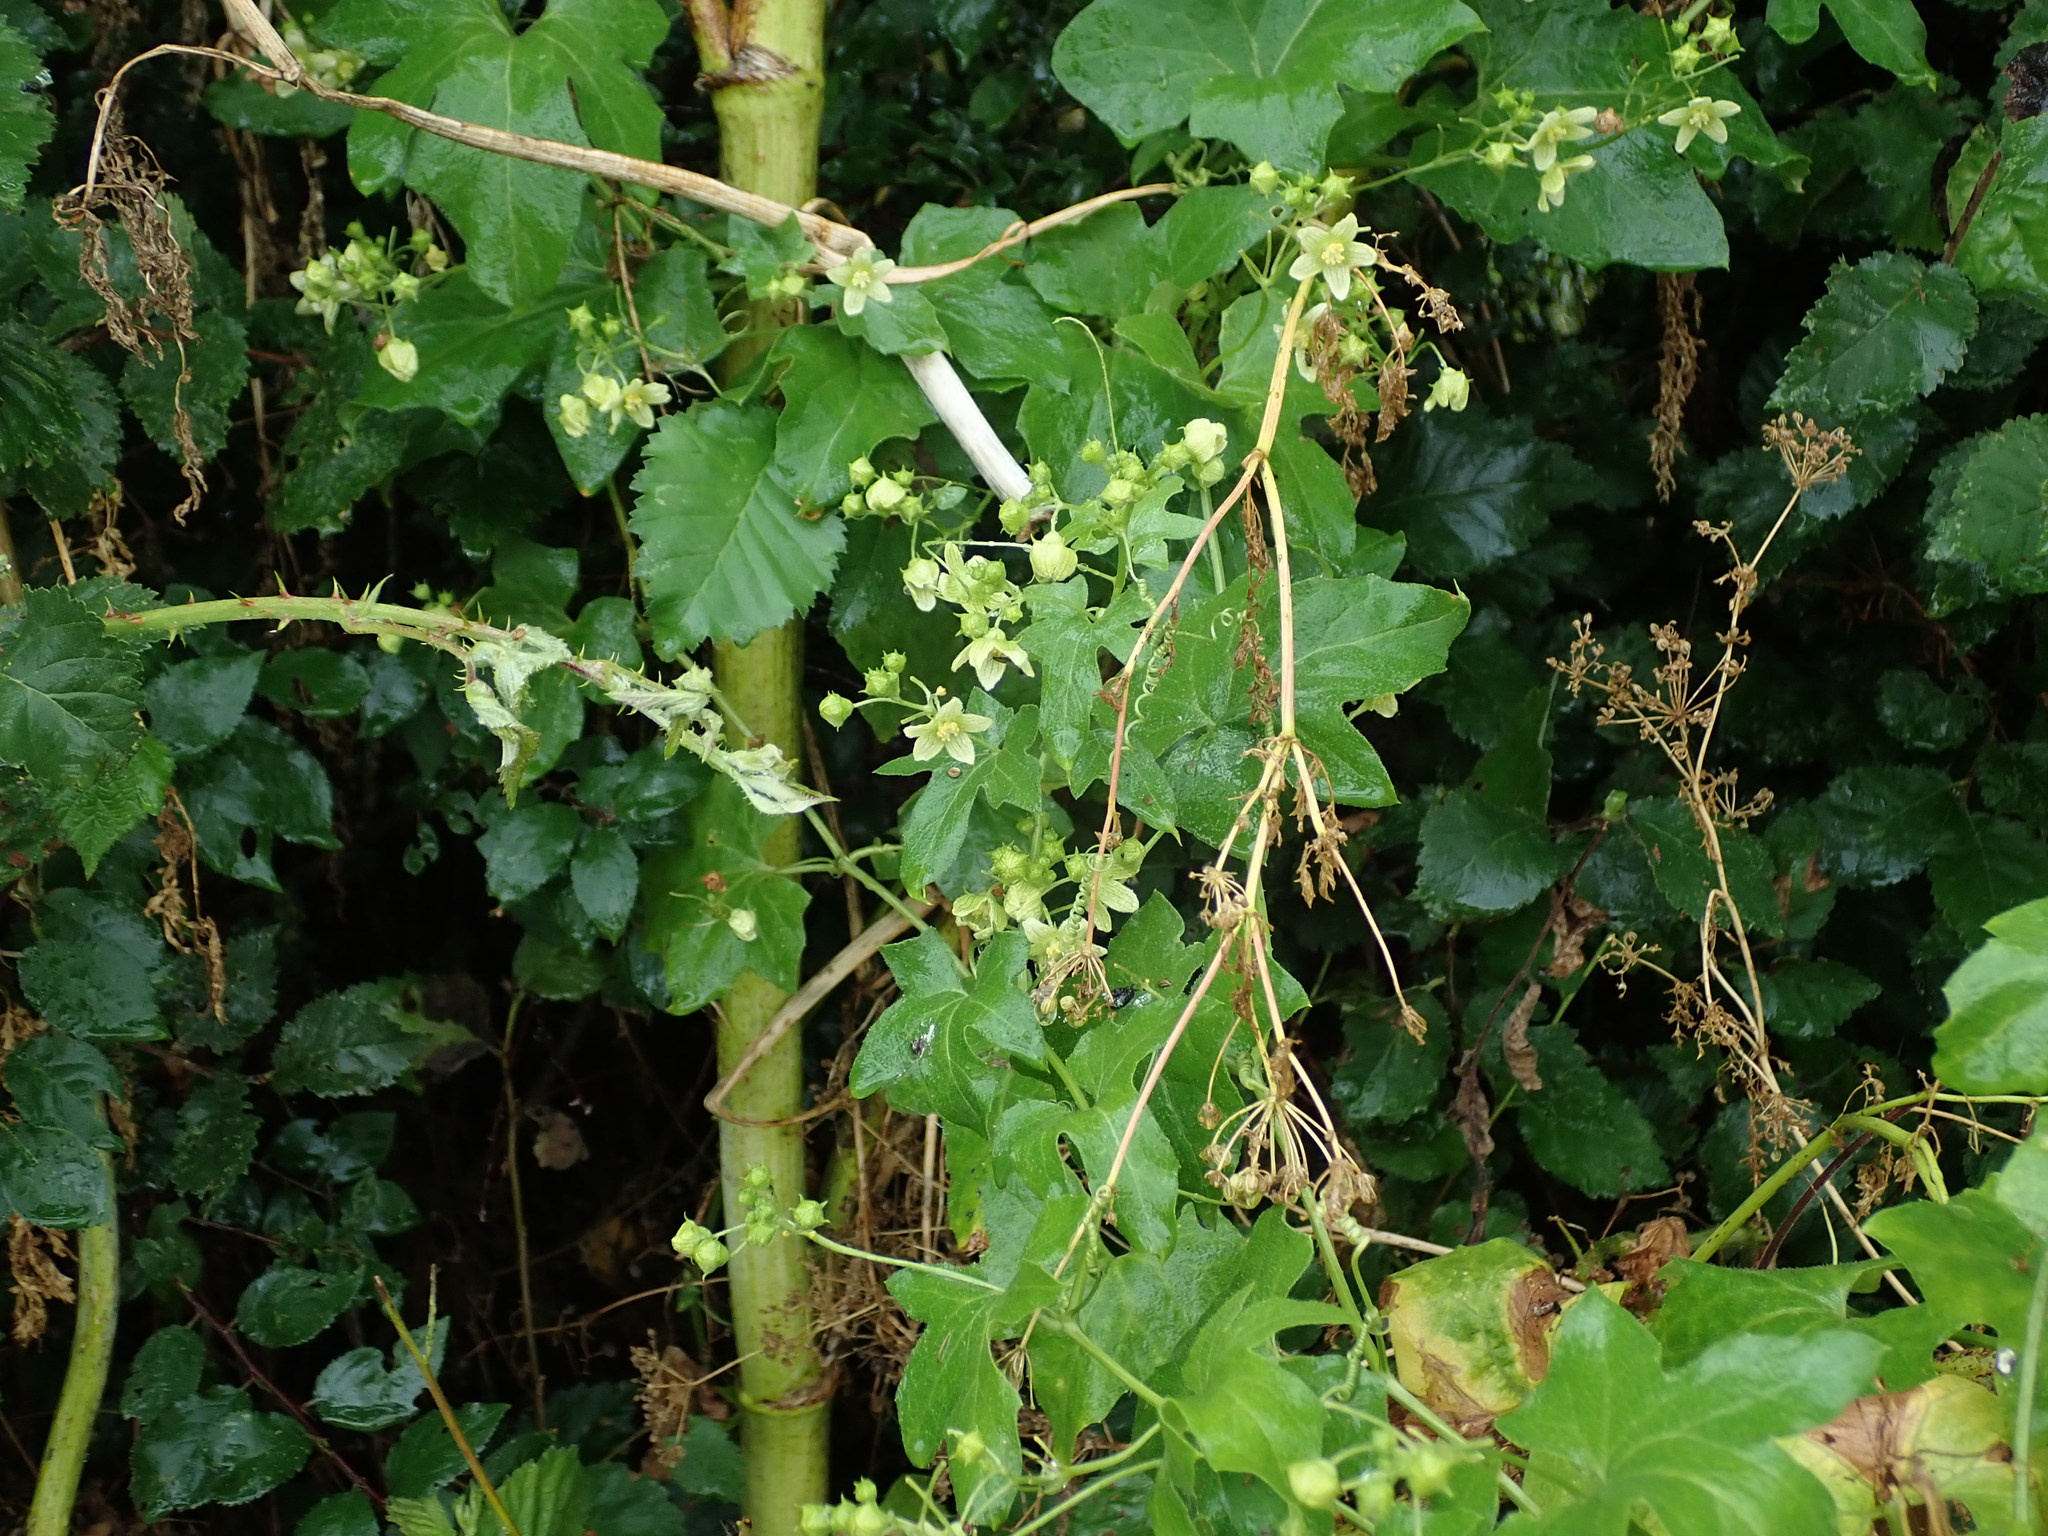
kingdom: Plantae
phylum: Tracheophyta
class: Magnoliopsida
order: Cucurbitales
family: Cucurbitaceae
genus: Bryonia
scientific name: Bryonia cretica
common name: Cretan bryony
